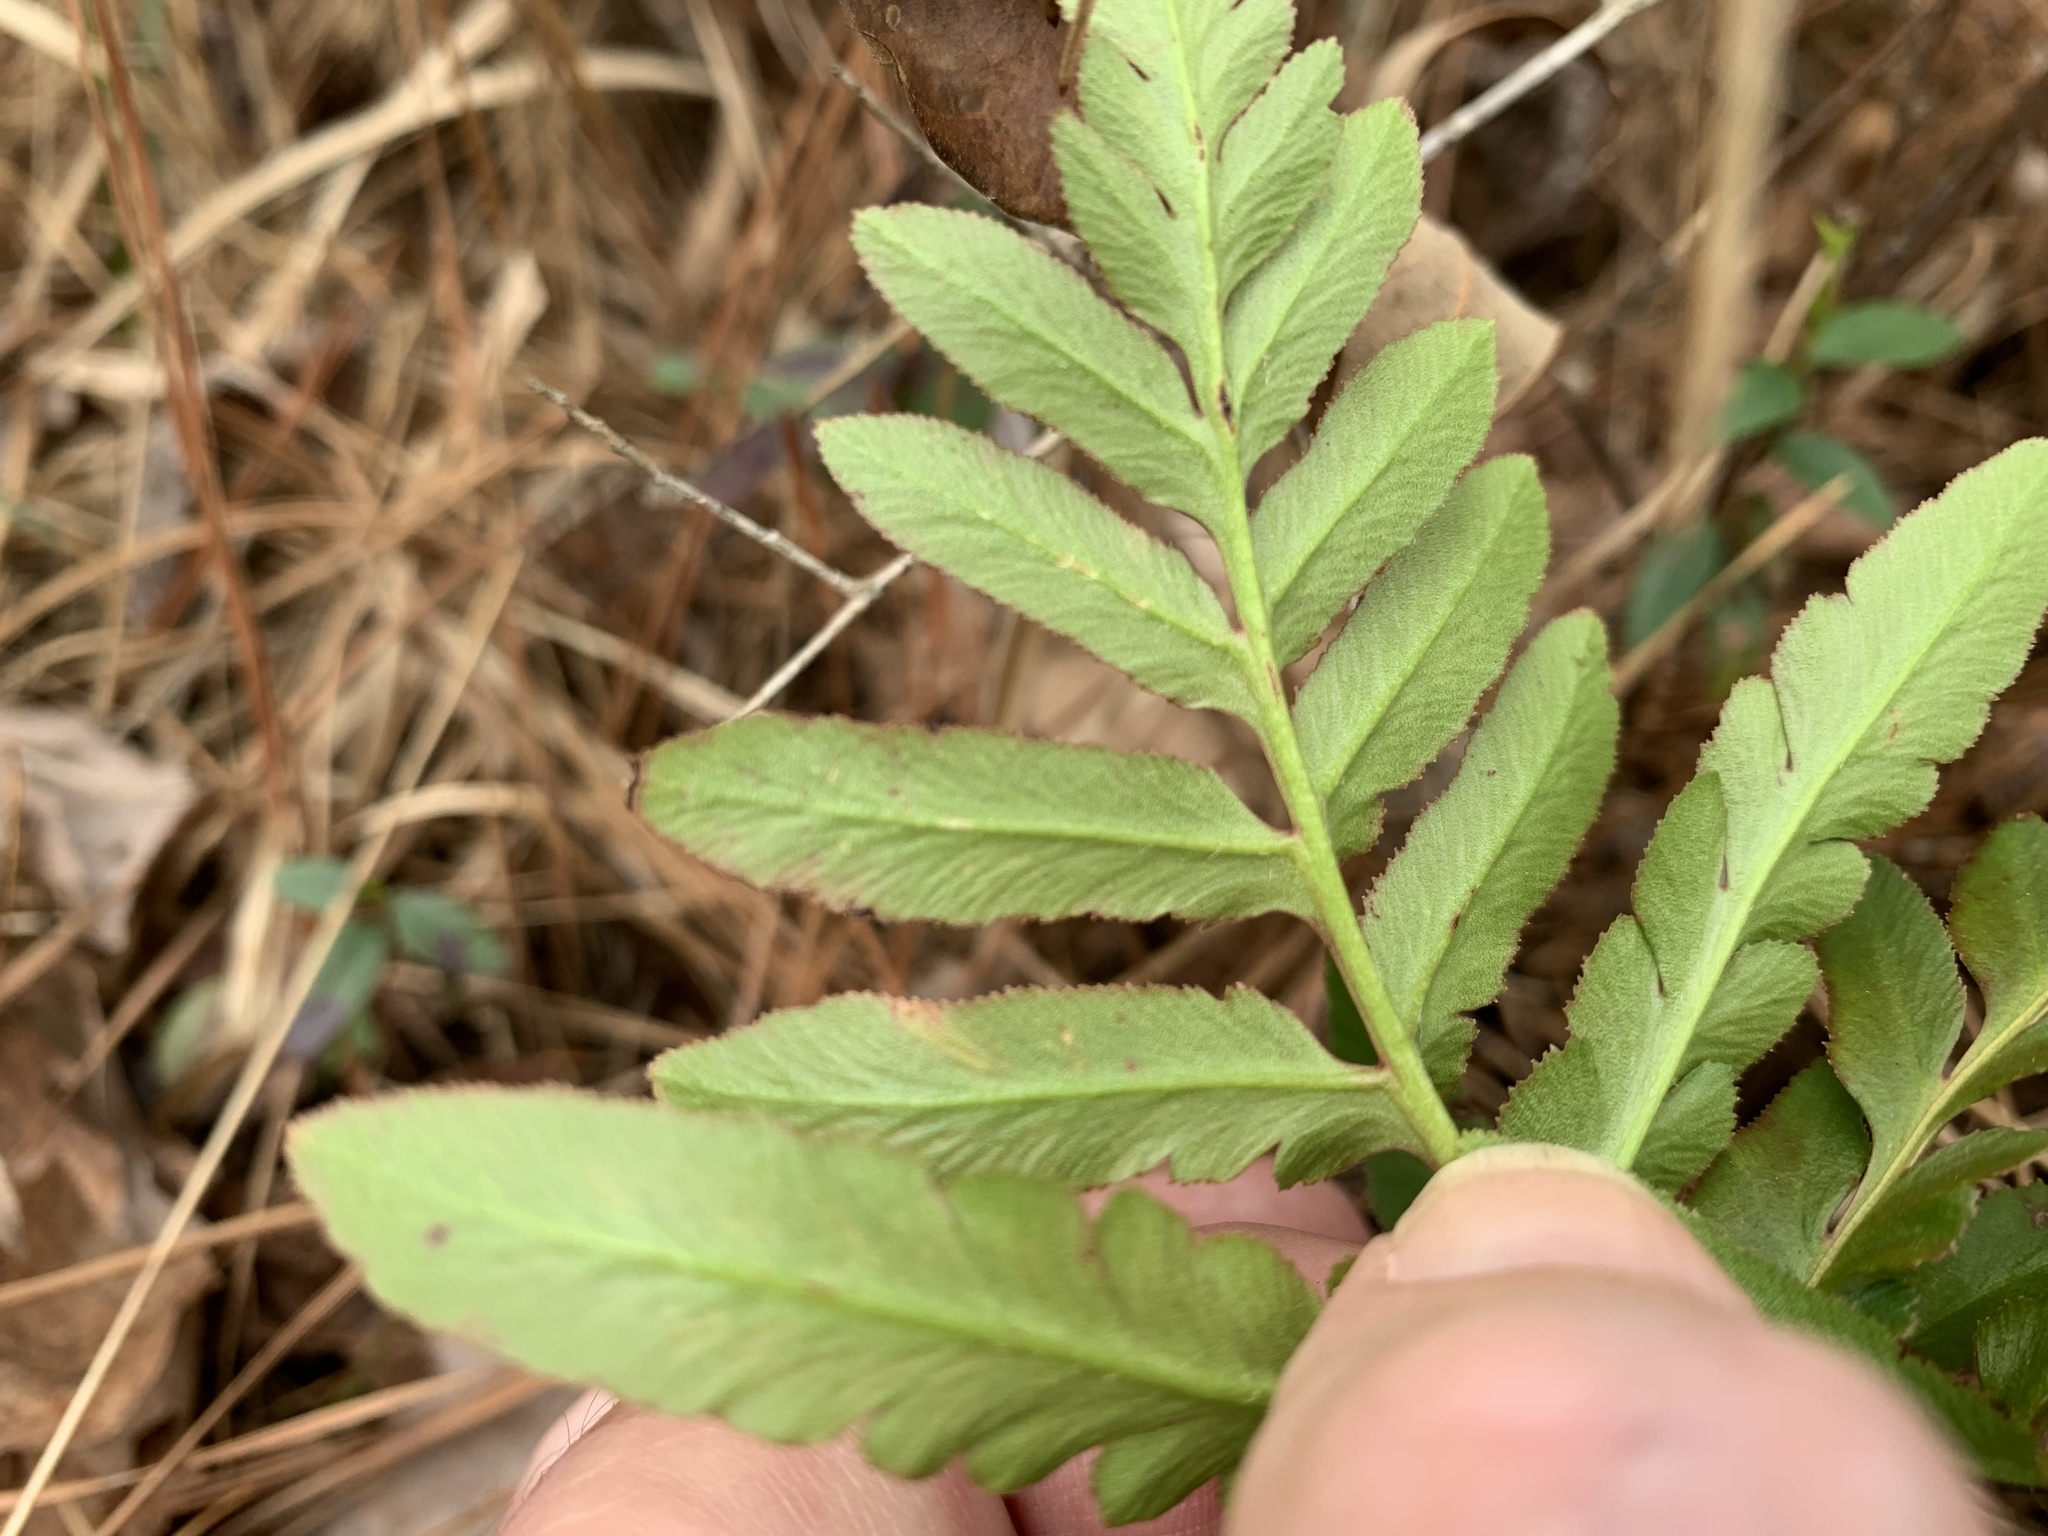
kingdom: Plantae
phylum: Tracheophyta
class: Polypodiopsida
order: Ophioglossales
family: Ophioglossaceae
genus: Sceptridium
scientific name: Sceptridium biternatum
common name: Sparse-lobed grapefern
